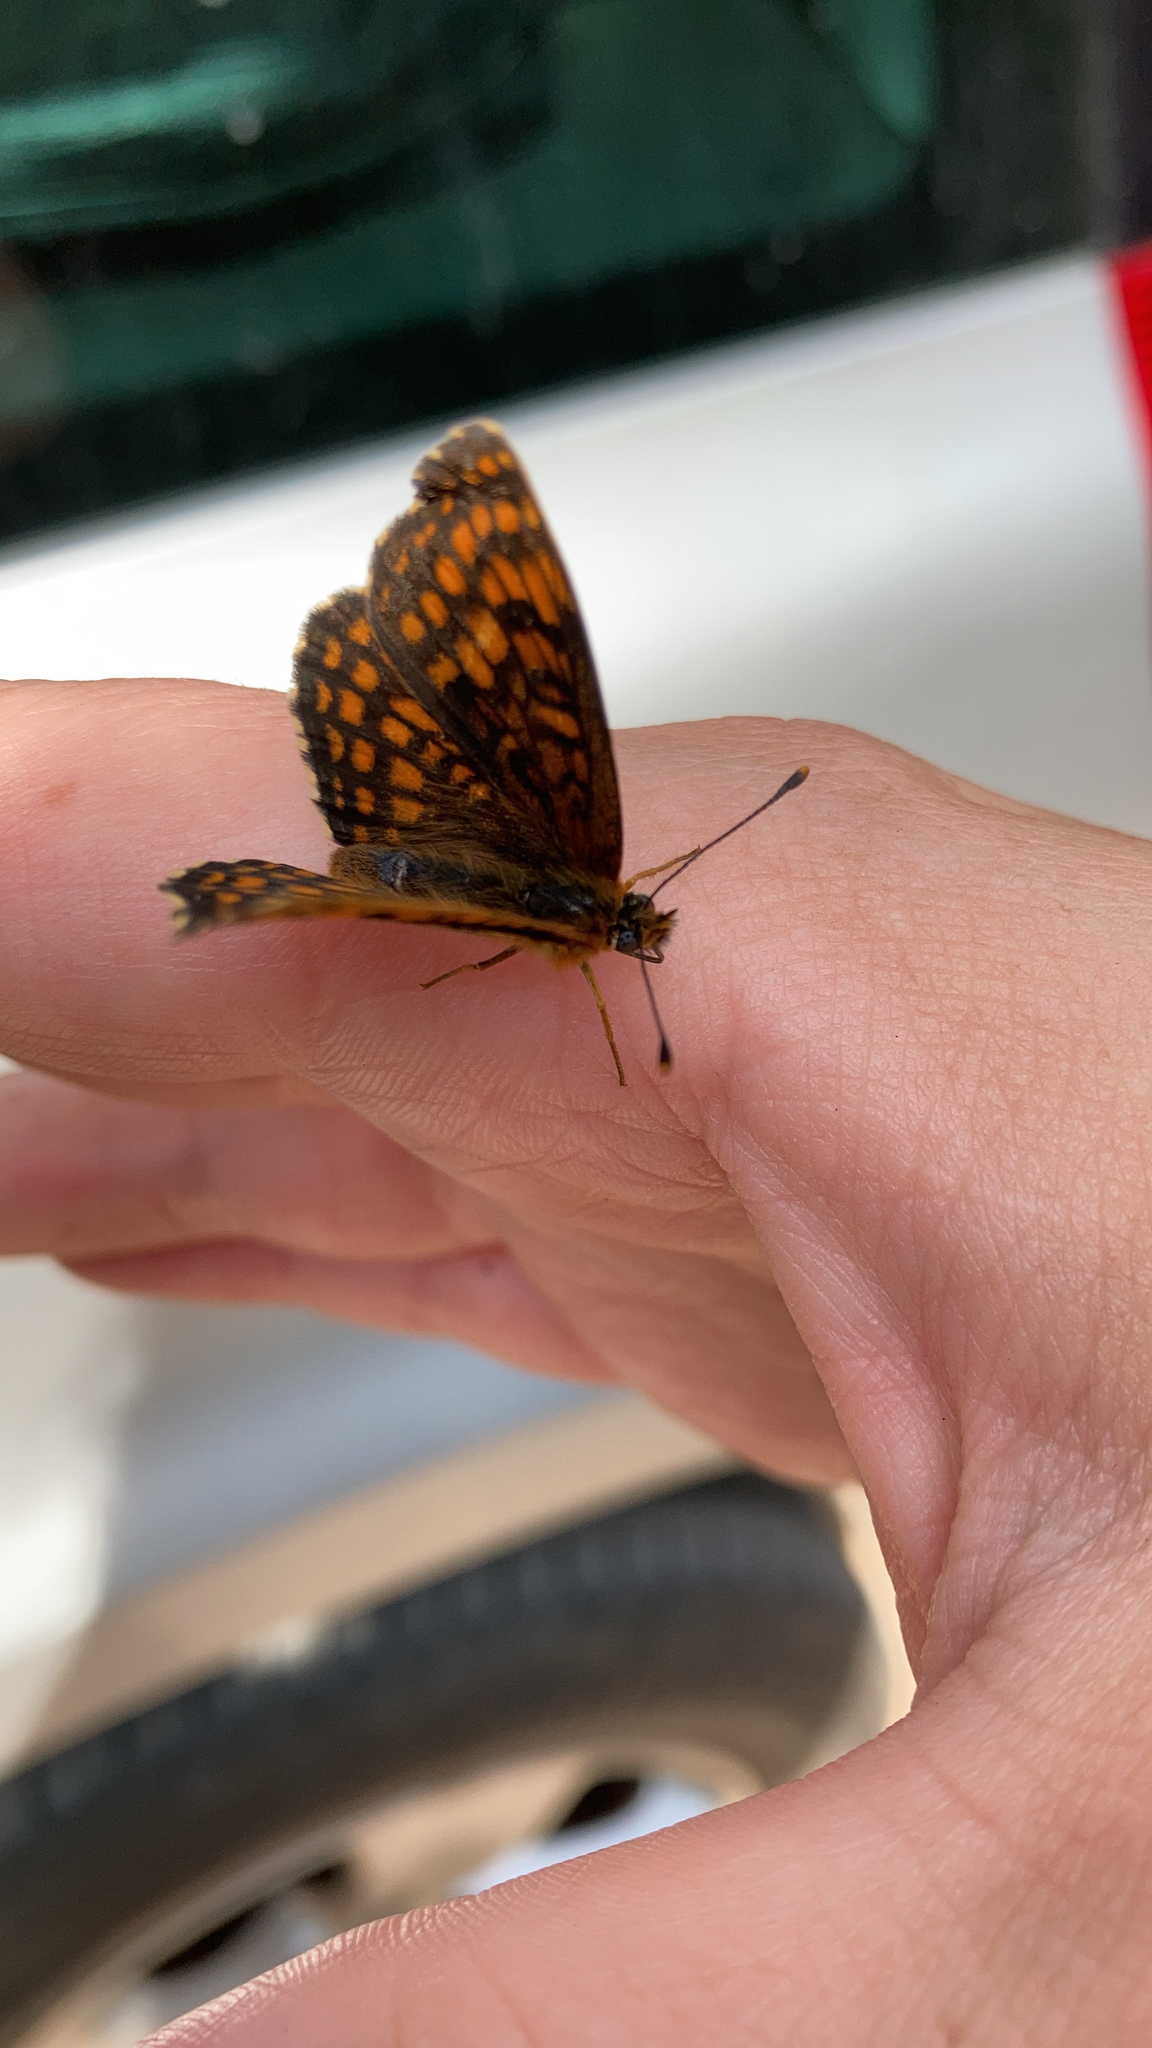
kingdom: Animalia
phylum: Arthropoda
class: Insecta
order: Lepidoptera
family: Nymphalidae
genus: Melitaea
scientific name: Melitaea athalia
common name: Heath fritillary
